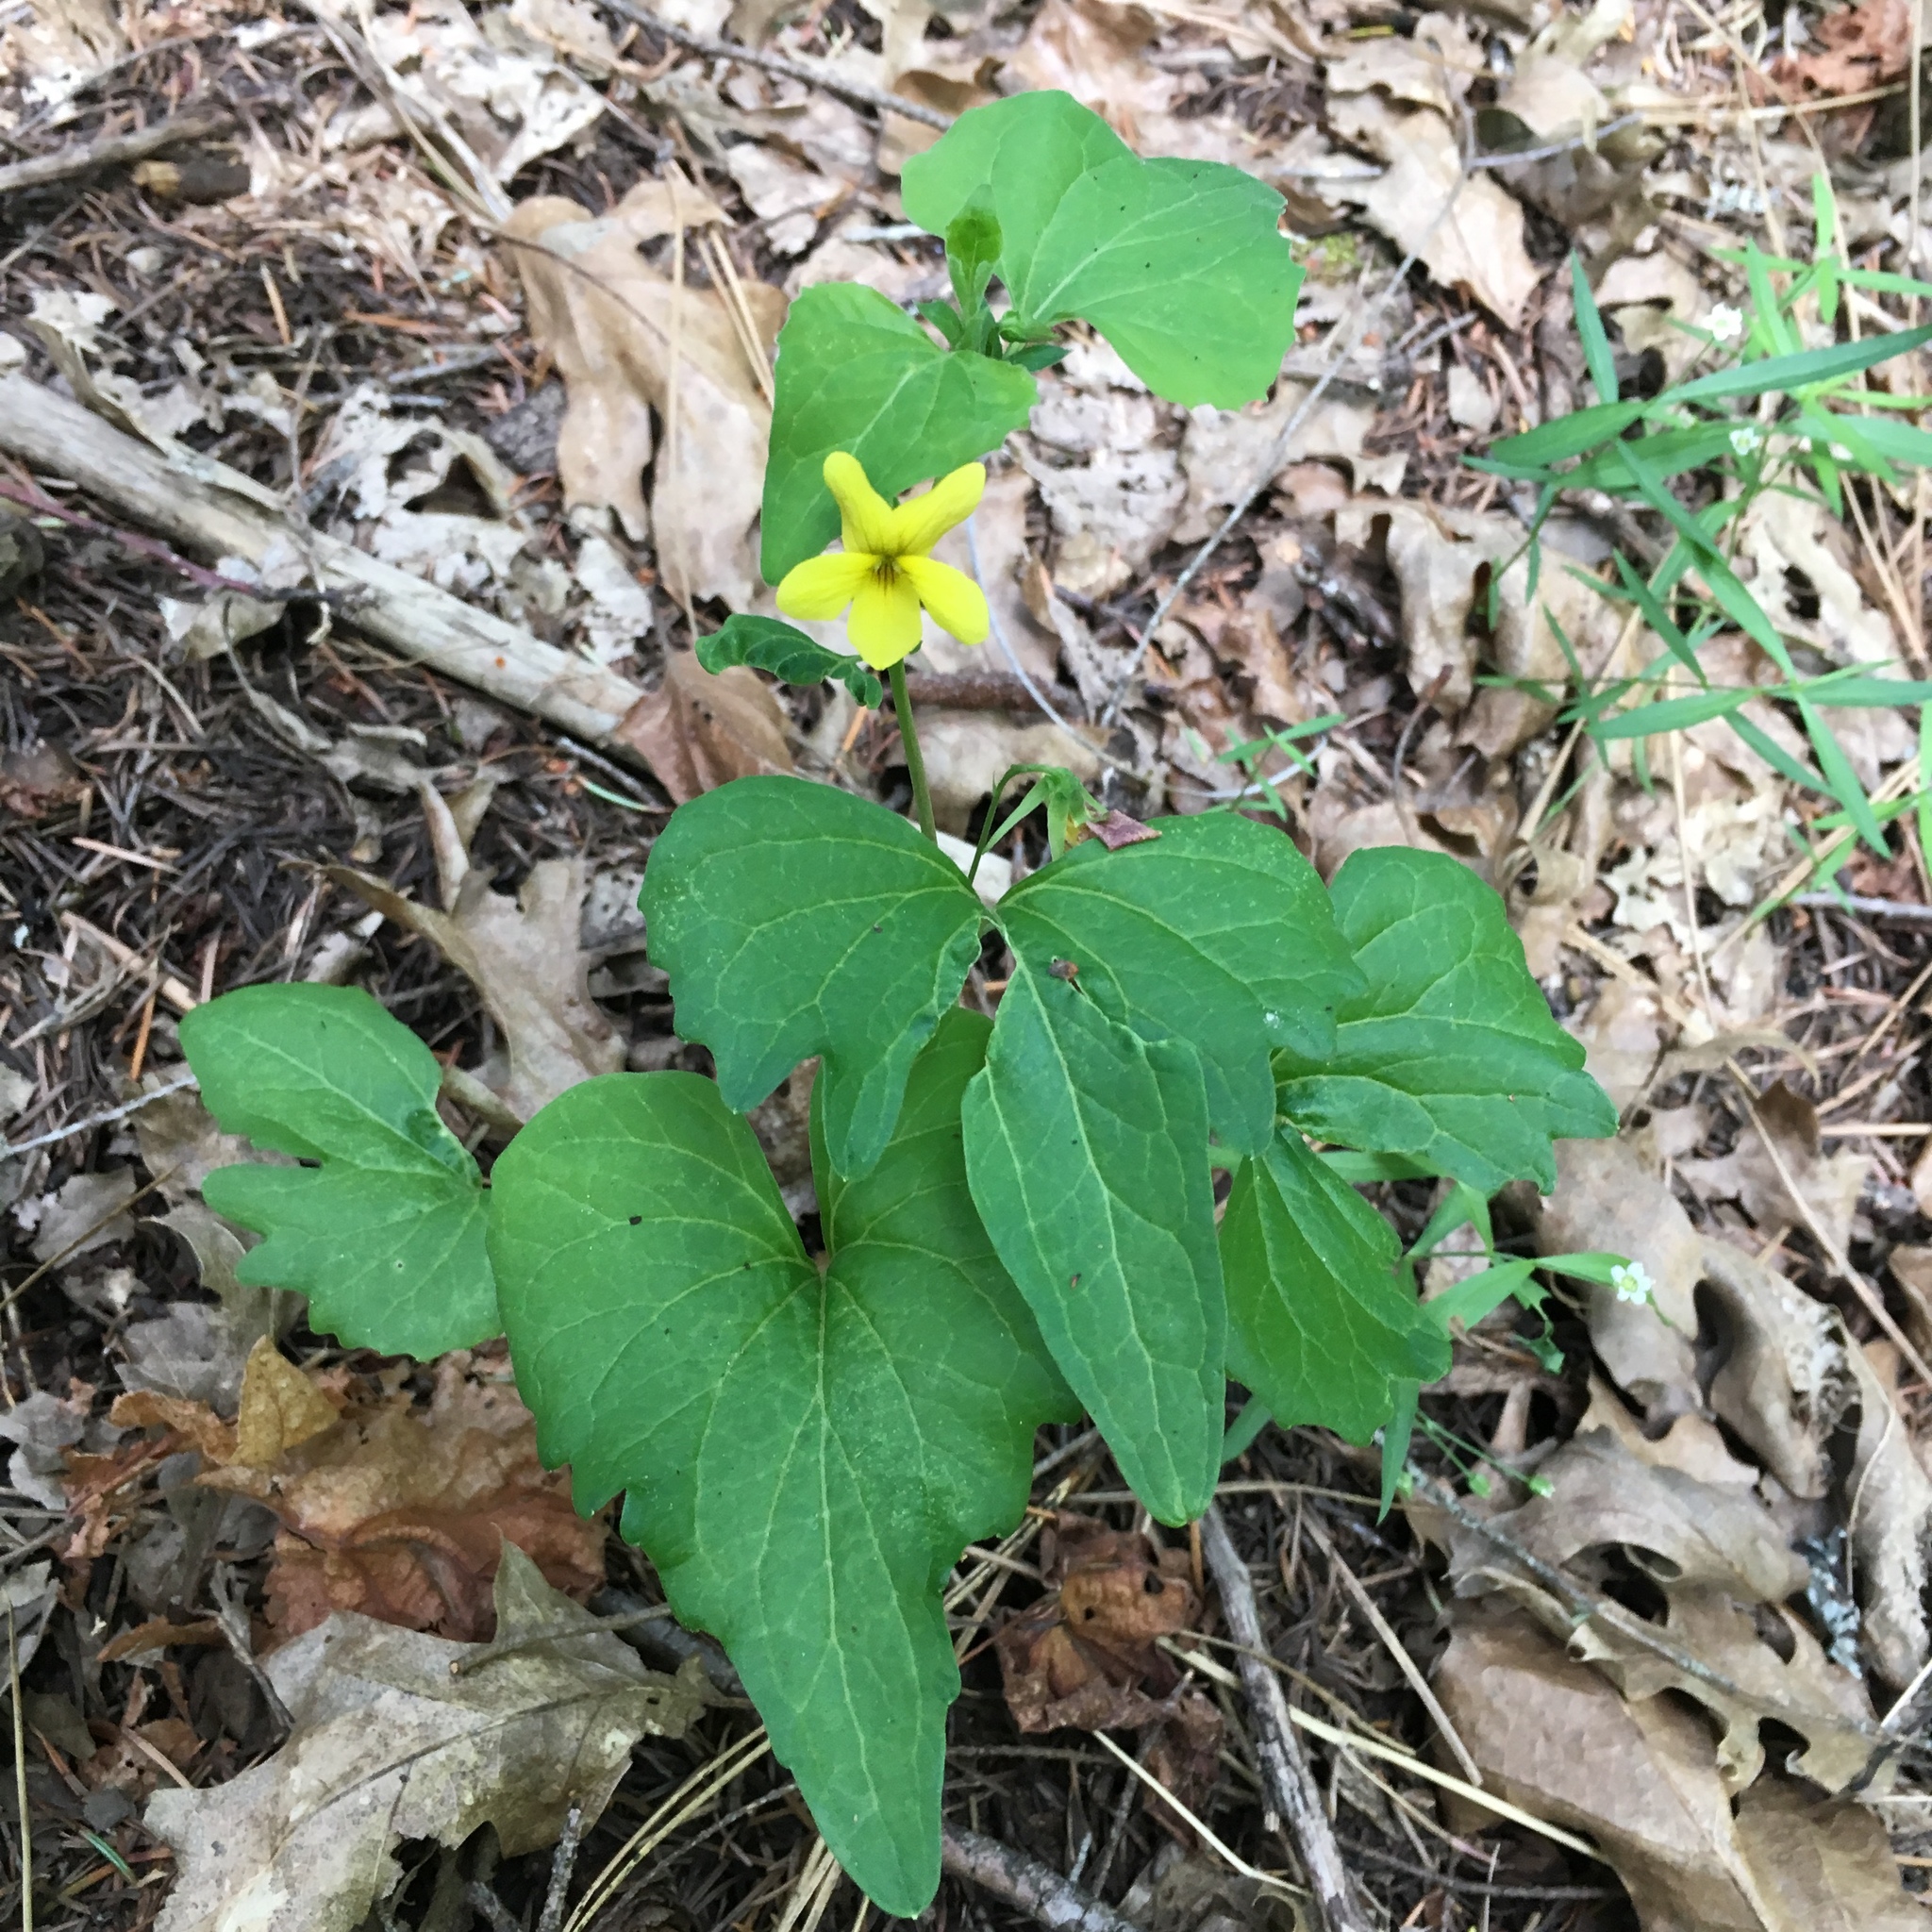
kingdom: Plantae
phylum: Tracheophyta
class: Magnoliopsida
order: Malpighiales
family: Violaceae
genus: Viola
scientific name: Viola lobata
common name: Pine violet
